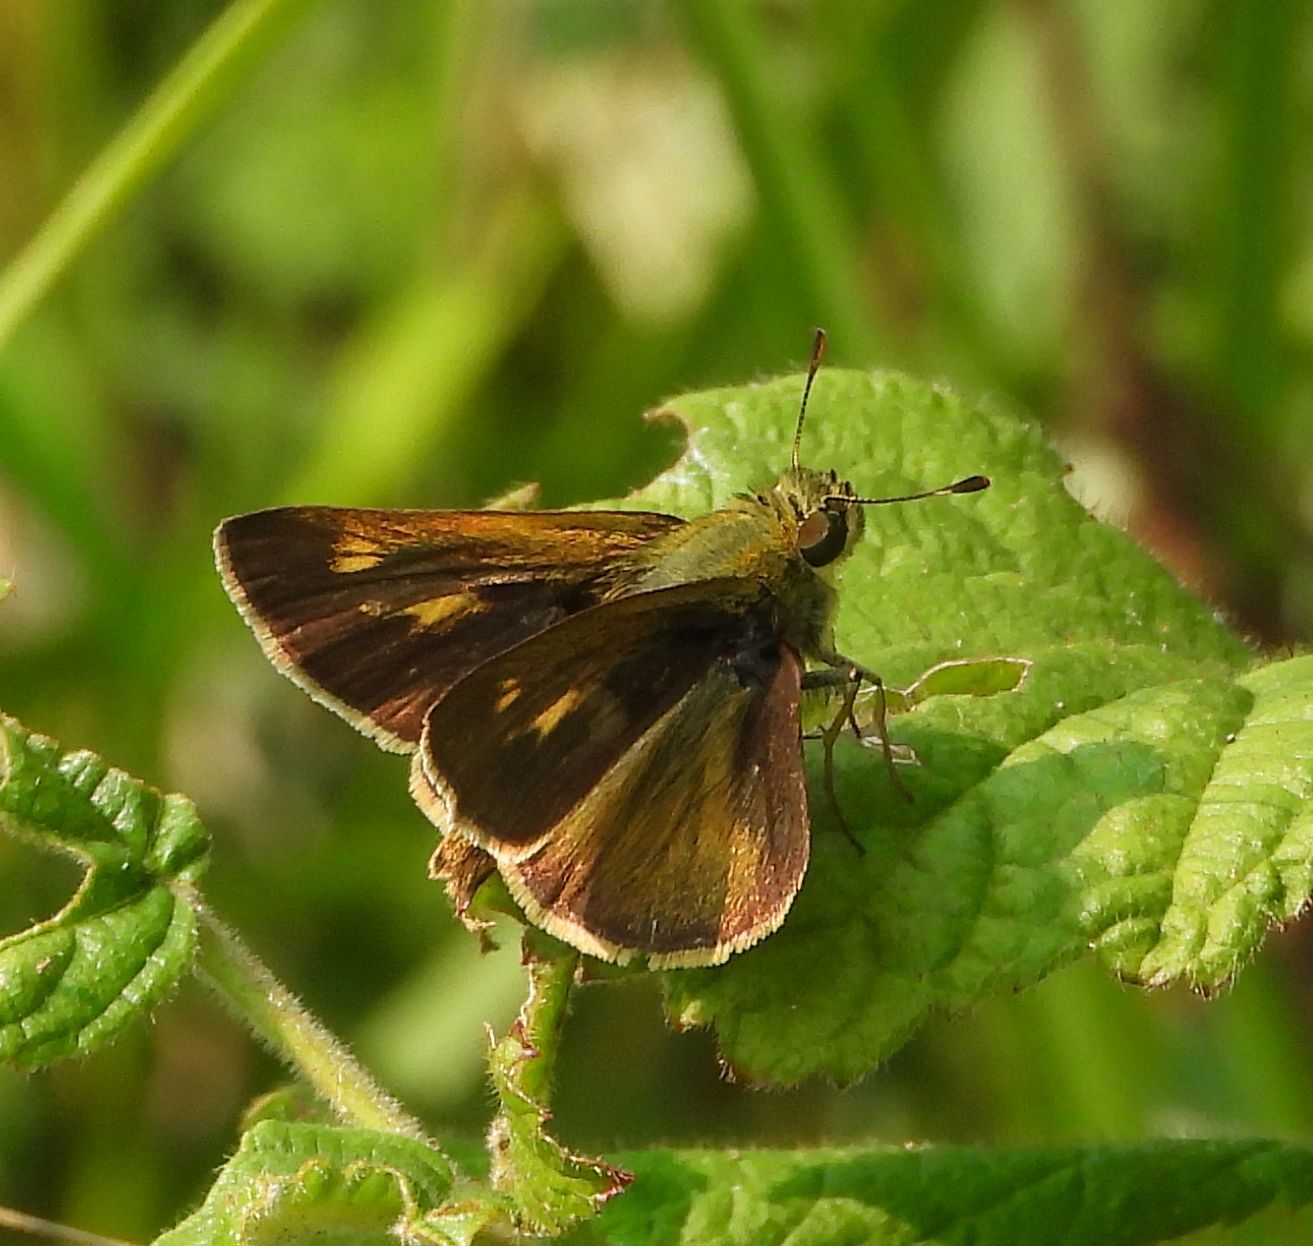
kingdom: Animalia
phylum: Arthropoda
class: Insecta
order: Lepidoptera
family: Hesperiidae
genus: Polites
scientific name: Polites egeremet
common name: Northern broken-dash
